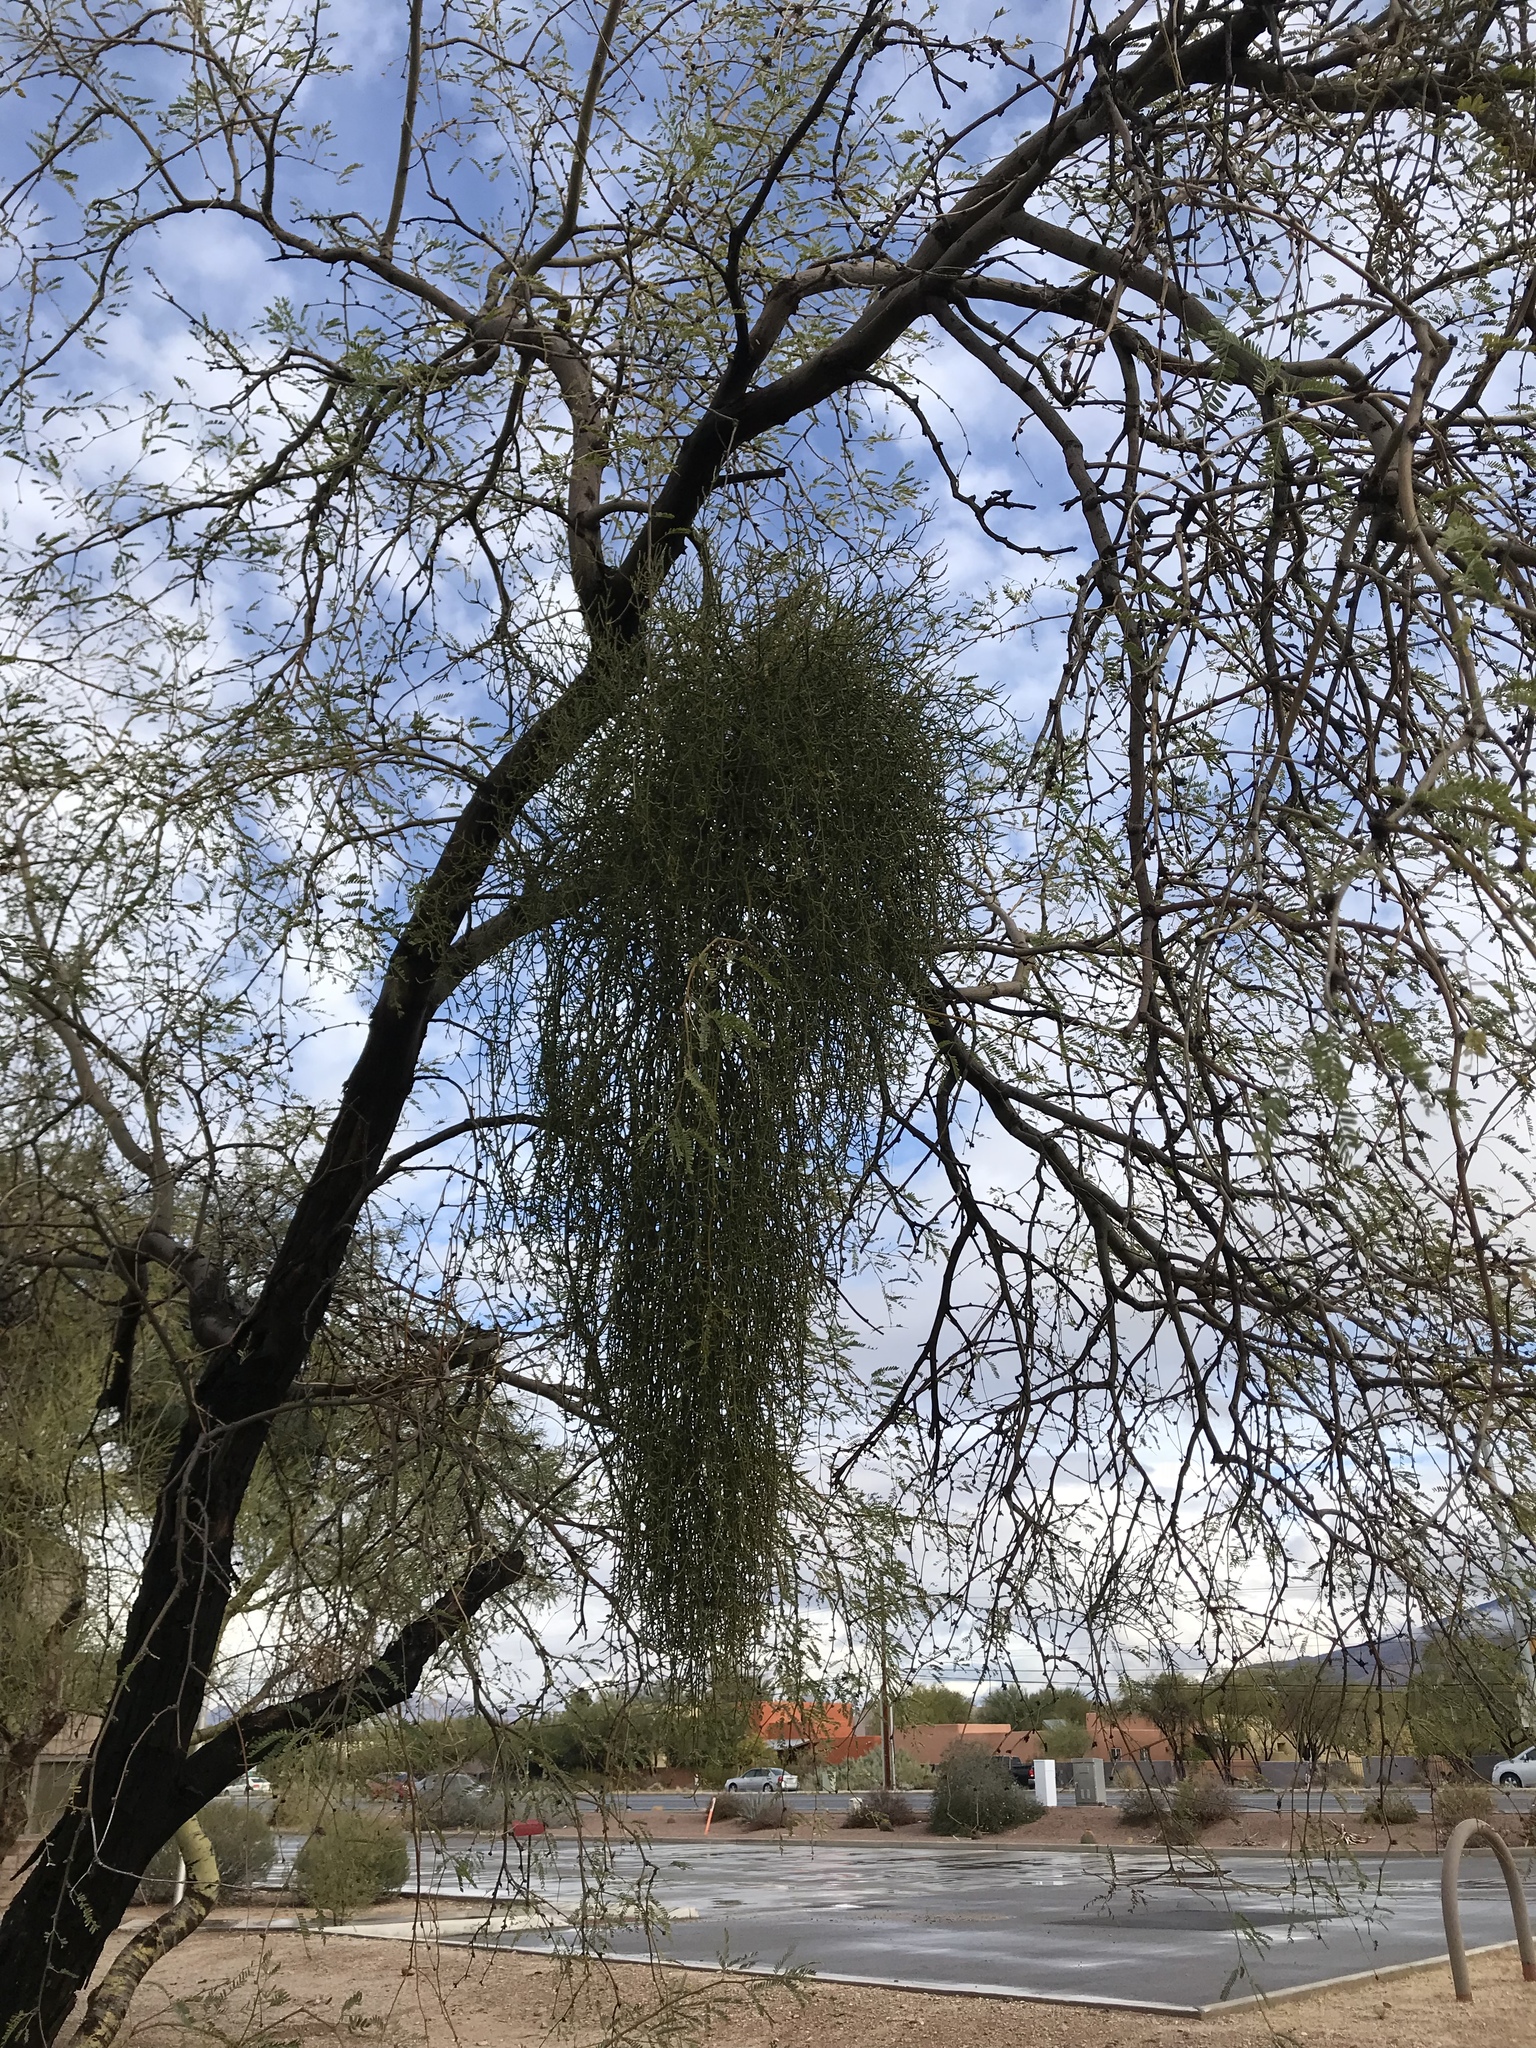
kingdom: Plantae
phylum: Tracheophyta
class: Magnoliopsida
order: Santalales
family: Viscaceae
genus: Phoradendron
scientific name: Phoradendron californicum
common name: Acacia mistletoe
